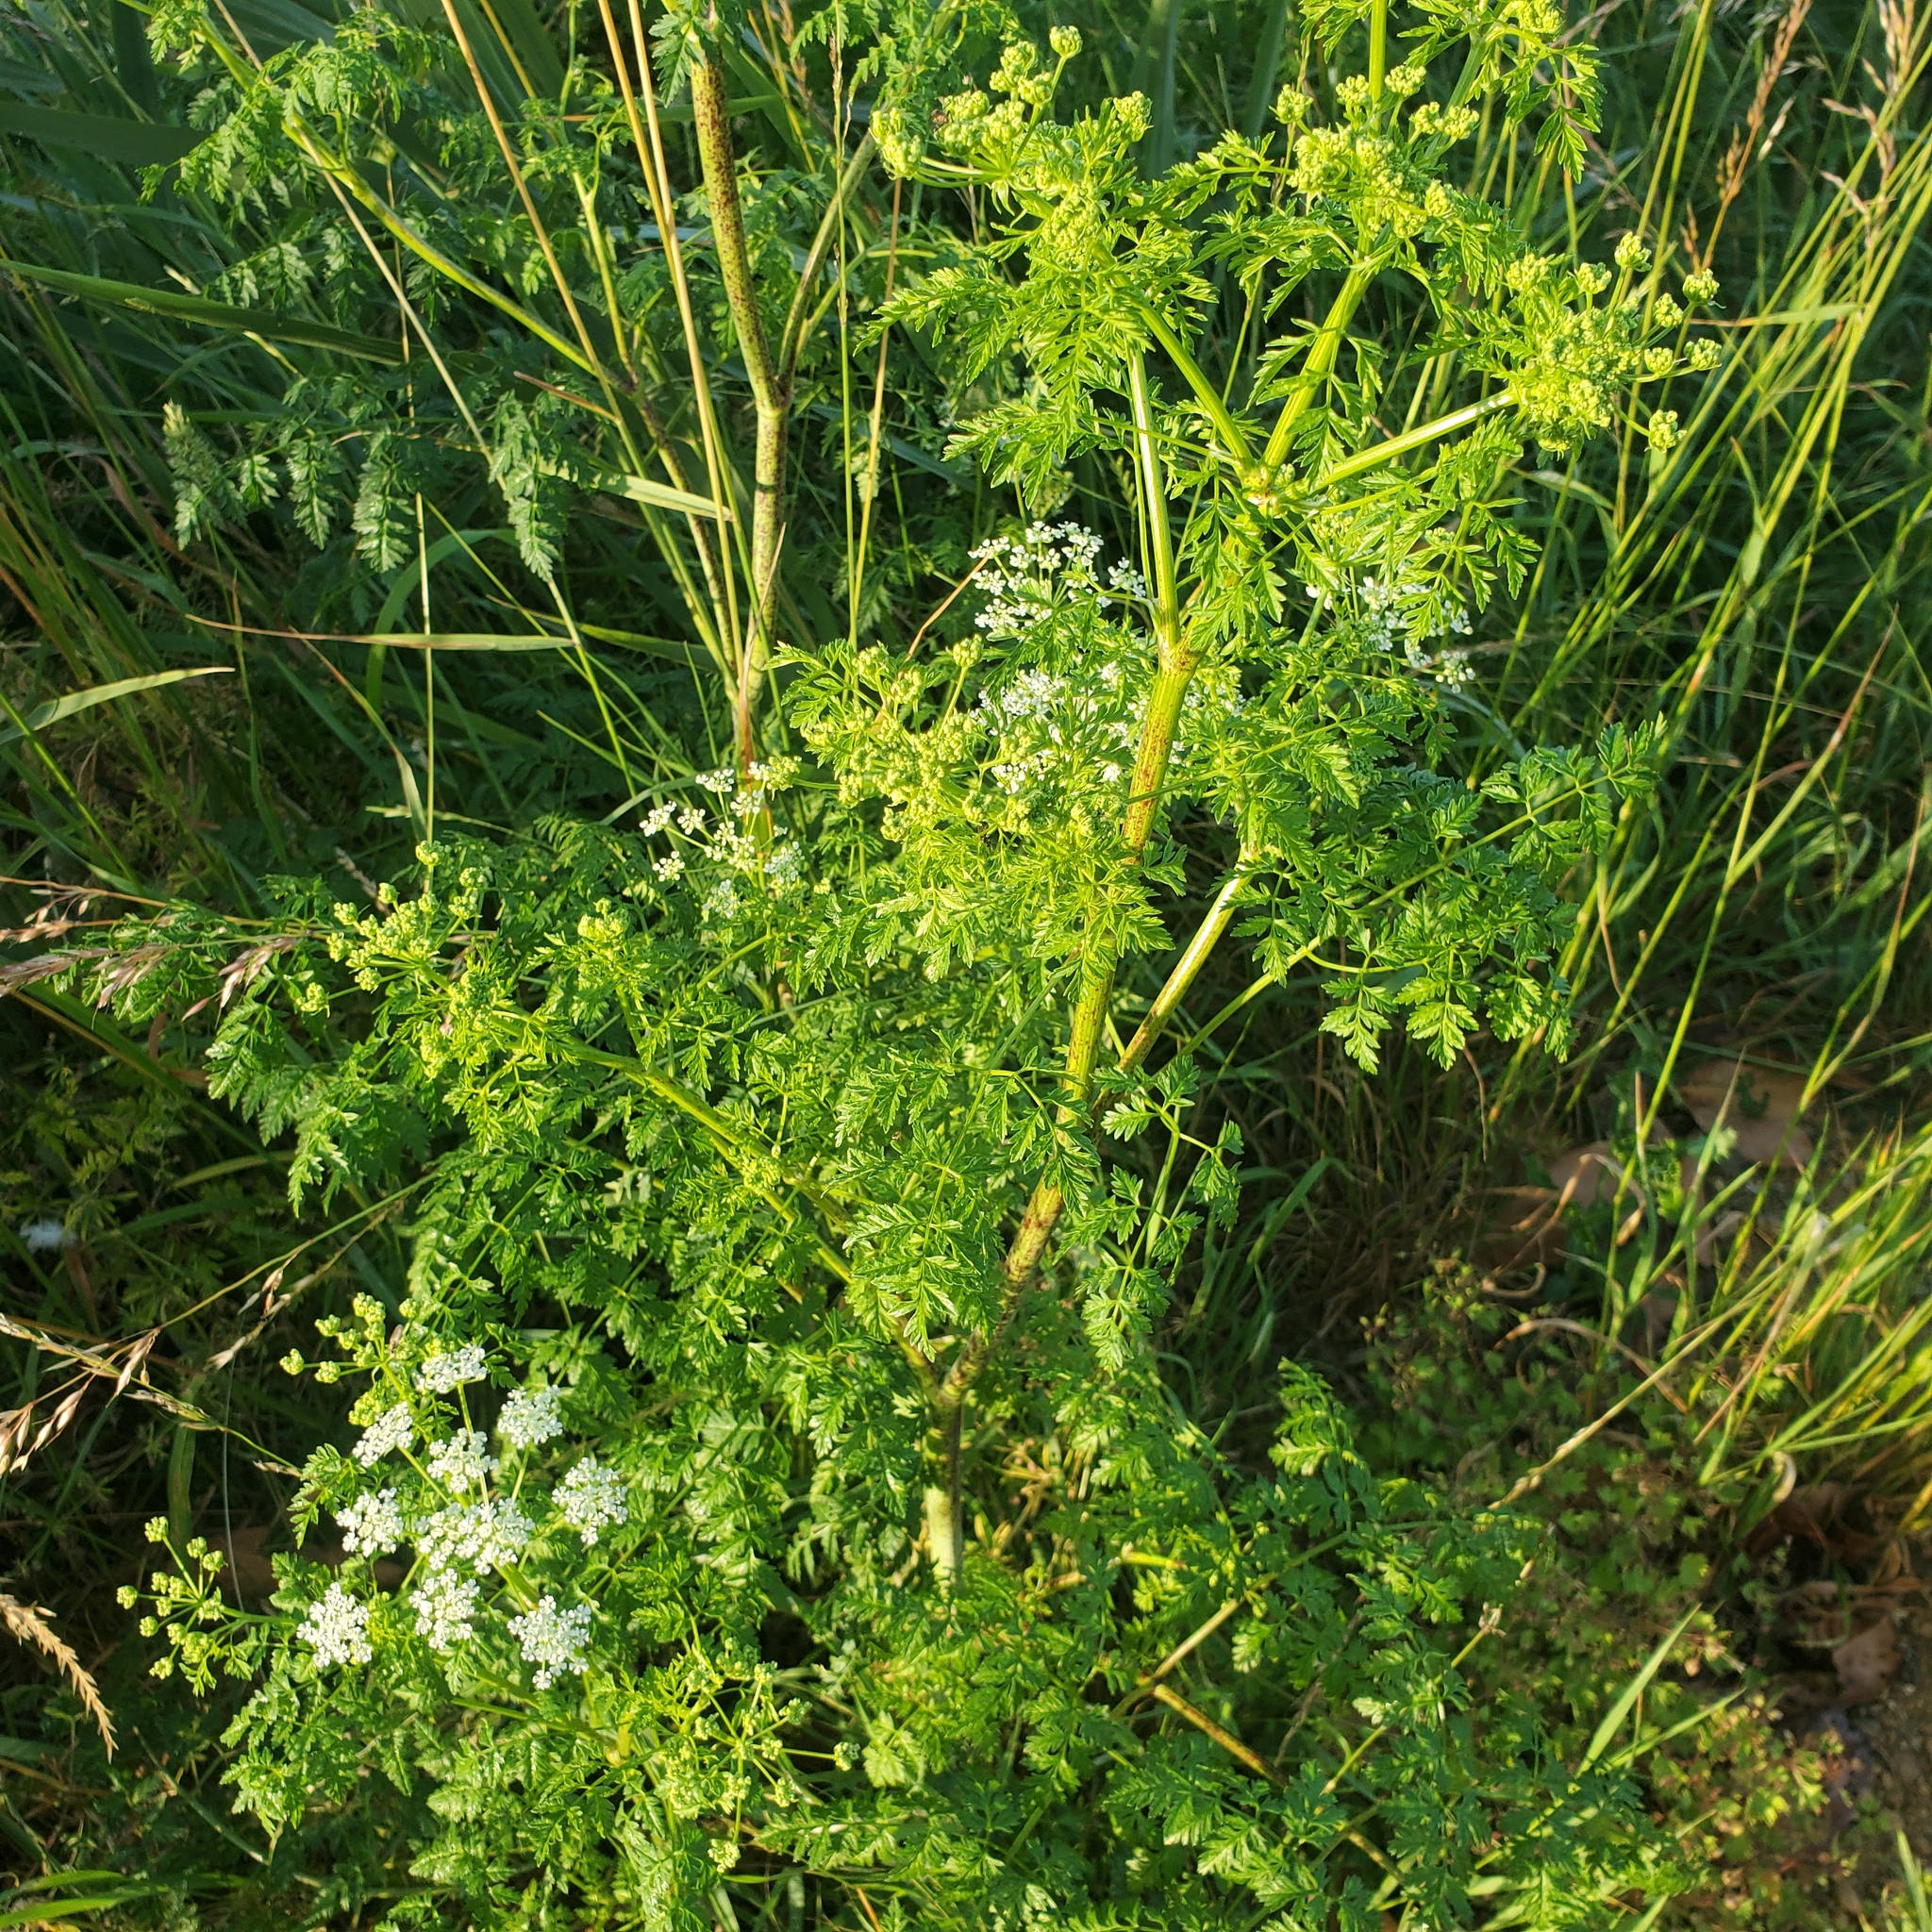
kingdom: Plantae
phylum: Tracheophyta
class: Magnoliopsida
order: Apiales
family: Apiaceae
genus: Conium
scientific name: Conium maculatum
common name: Hemlock
